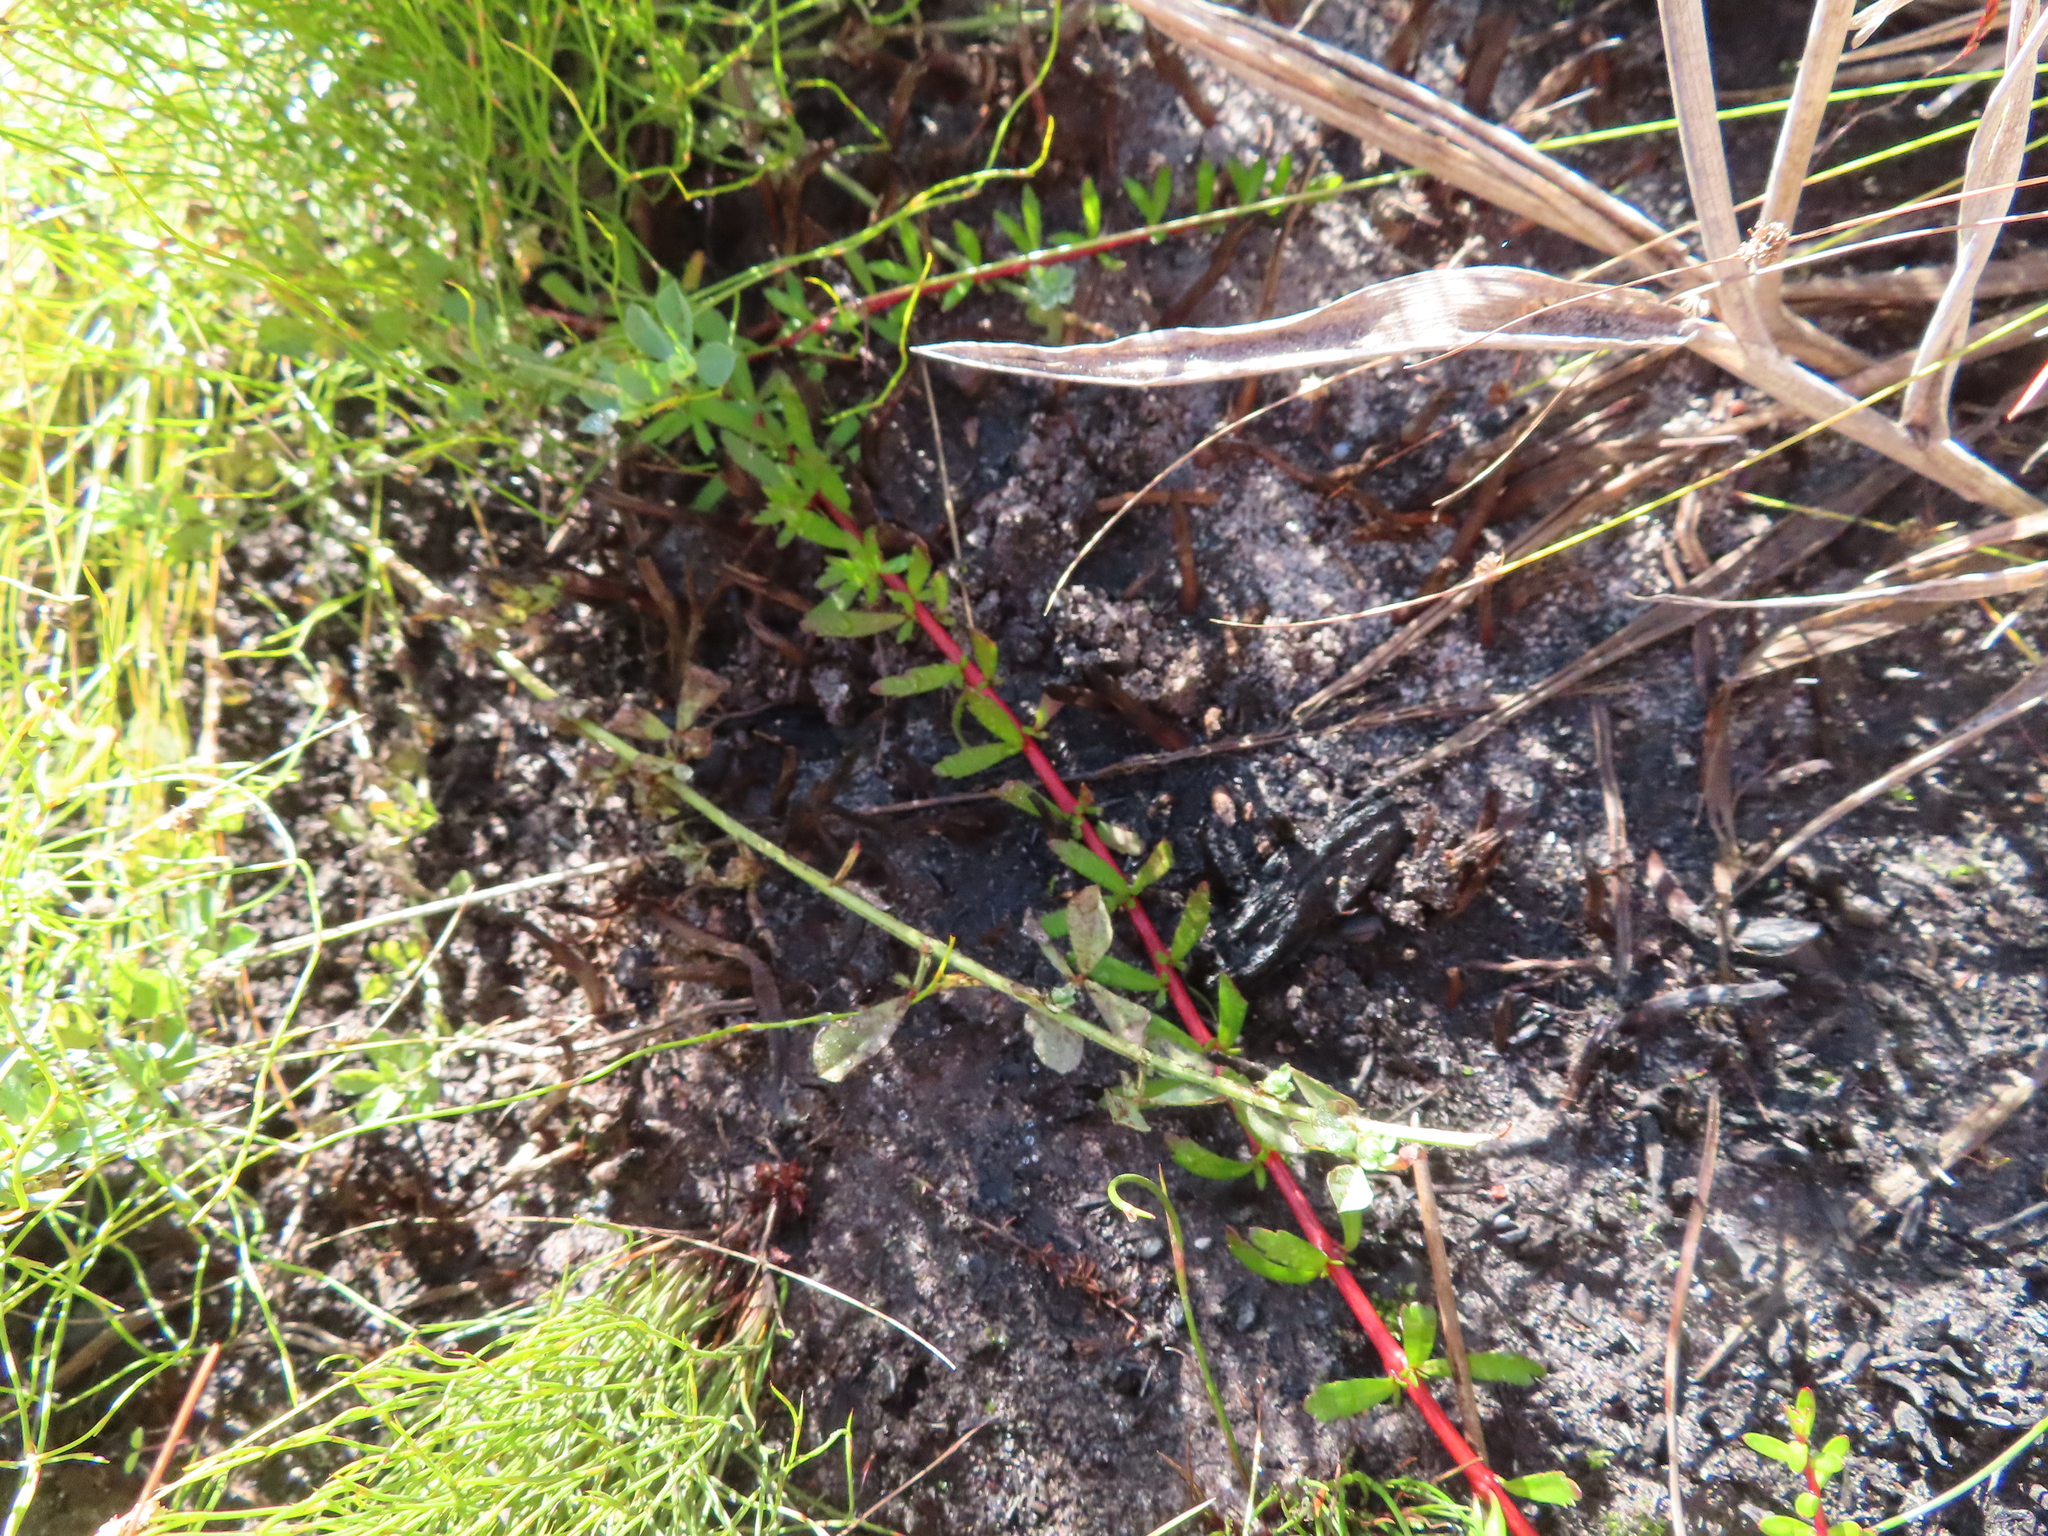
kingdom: Plantae
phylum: Tracheophyta
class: Magnoliopsida
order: Saxifragales
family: Haloragaceae
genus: Laurembergia
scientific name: Laurembergia repens
